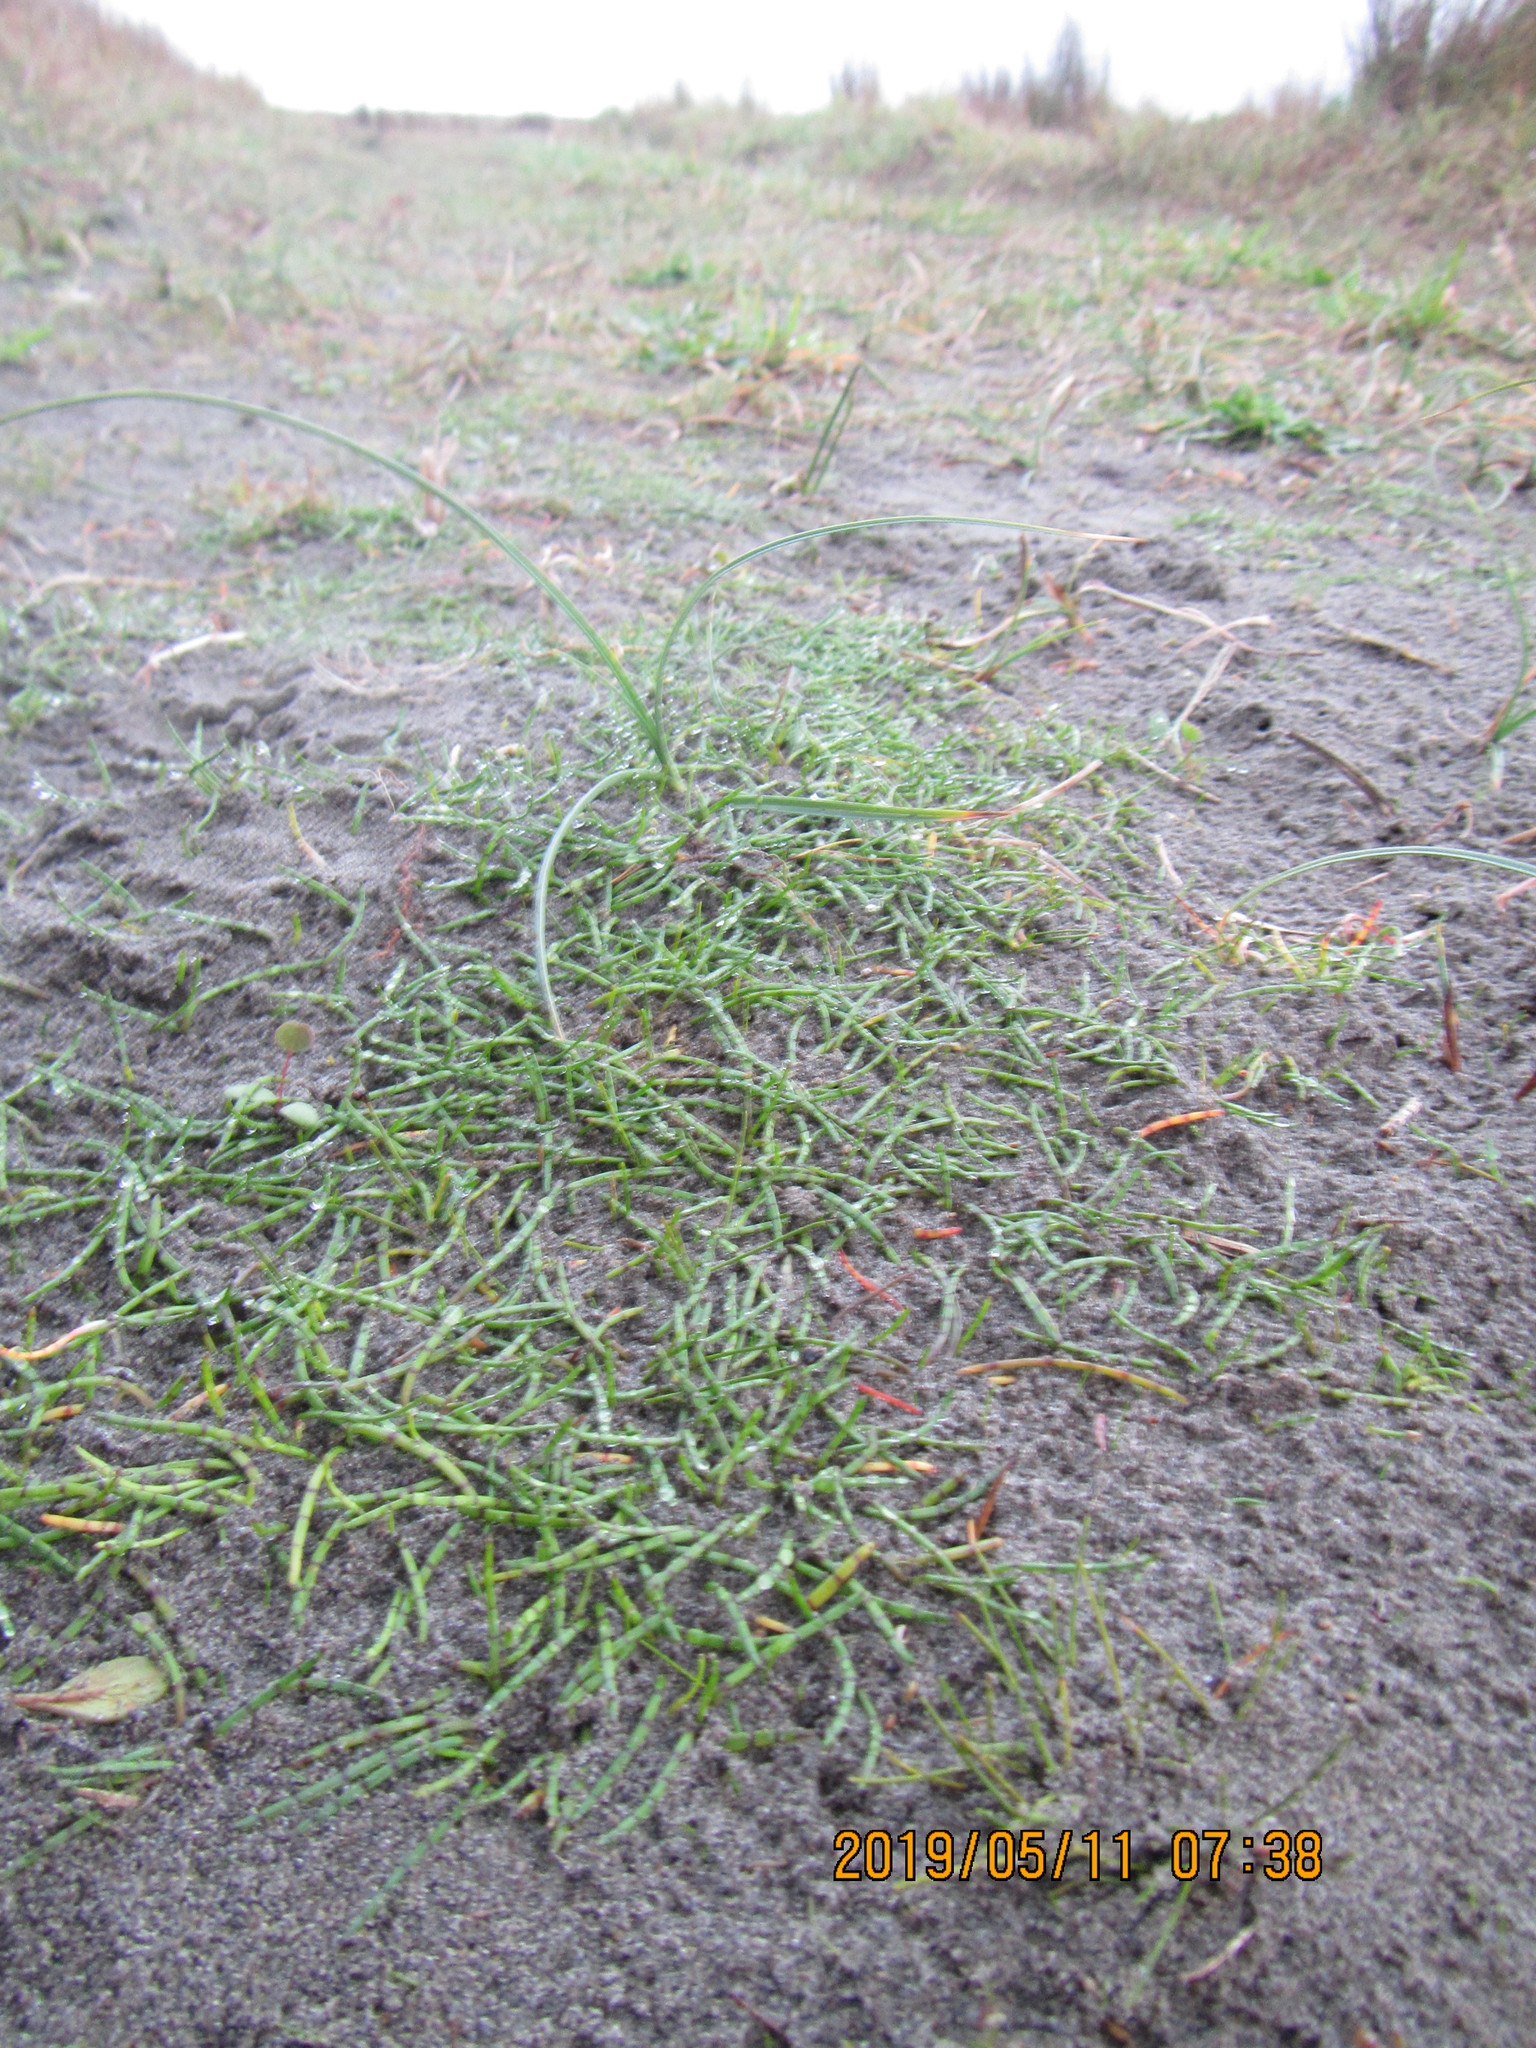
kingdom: Plantae
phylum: Tracheophyta
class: Magnoliopsida
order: Apiales
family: Apiaceae
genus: Lilaeopsis
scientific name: Lilaeopsis novae-zelandiae
